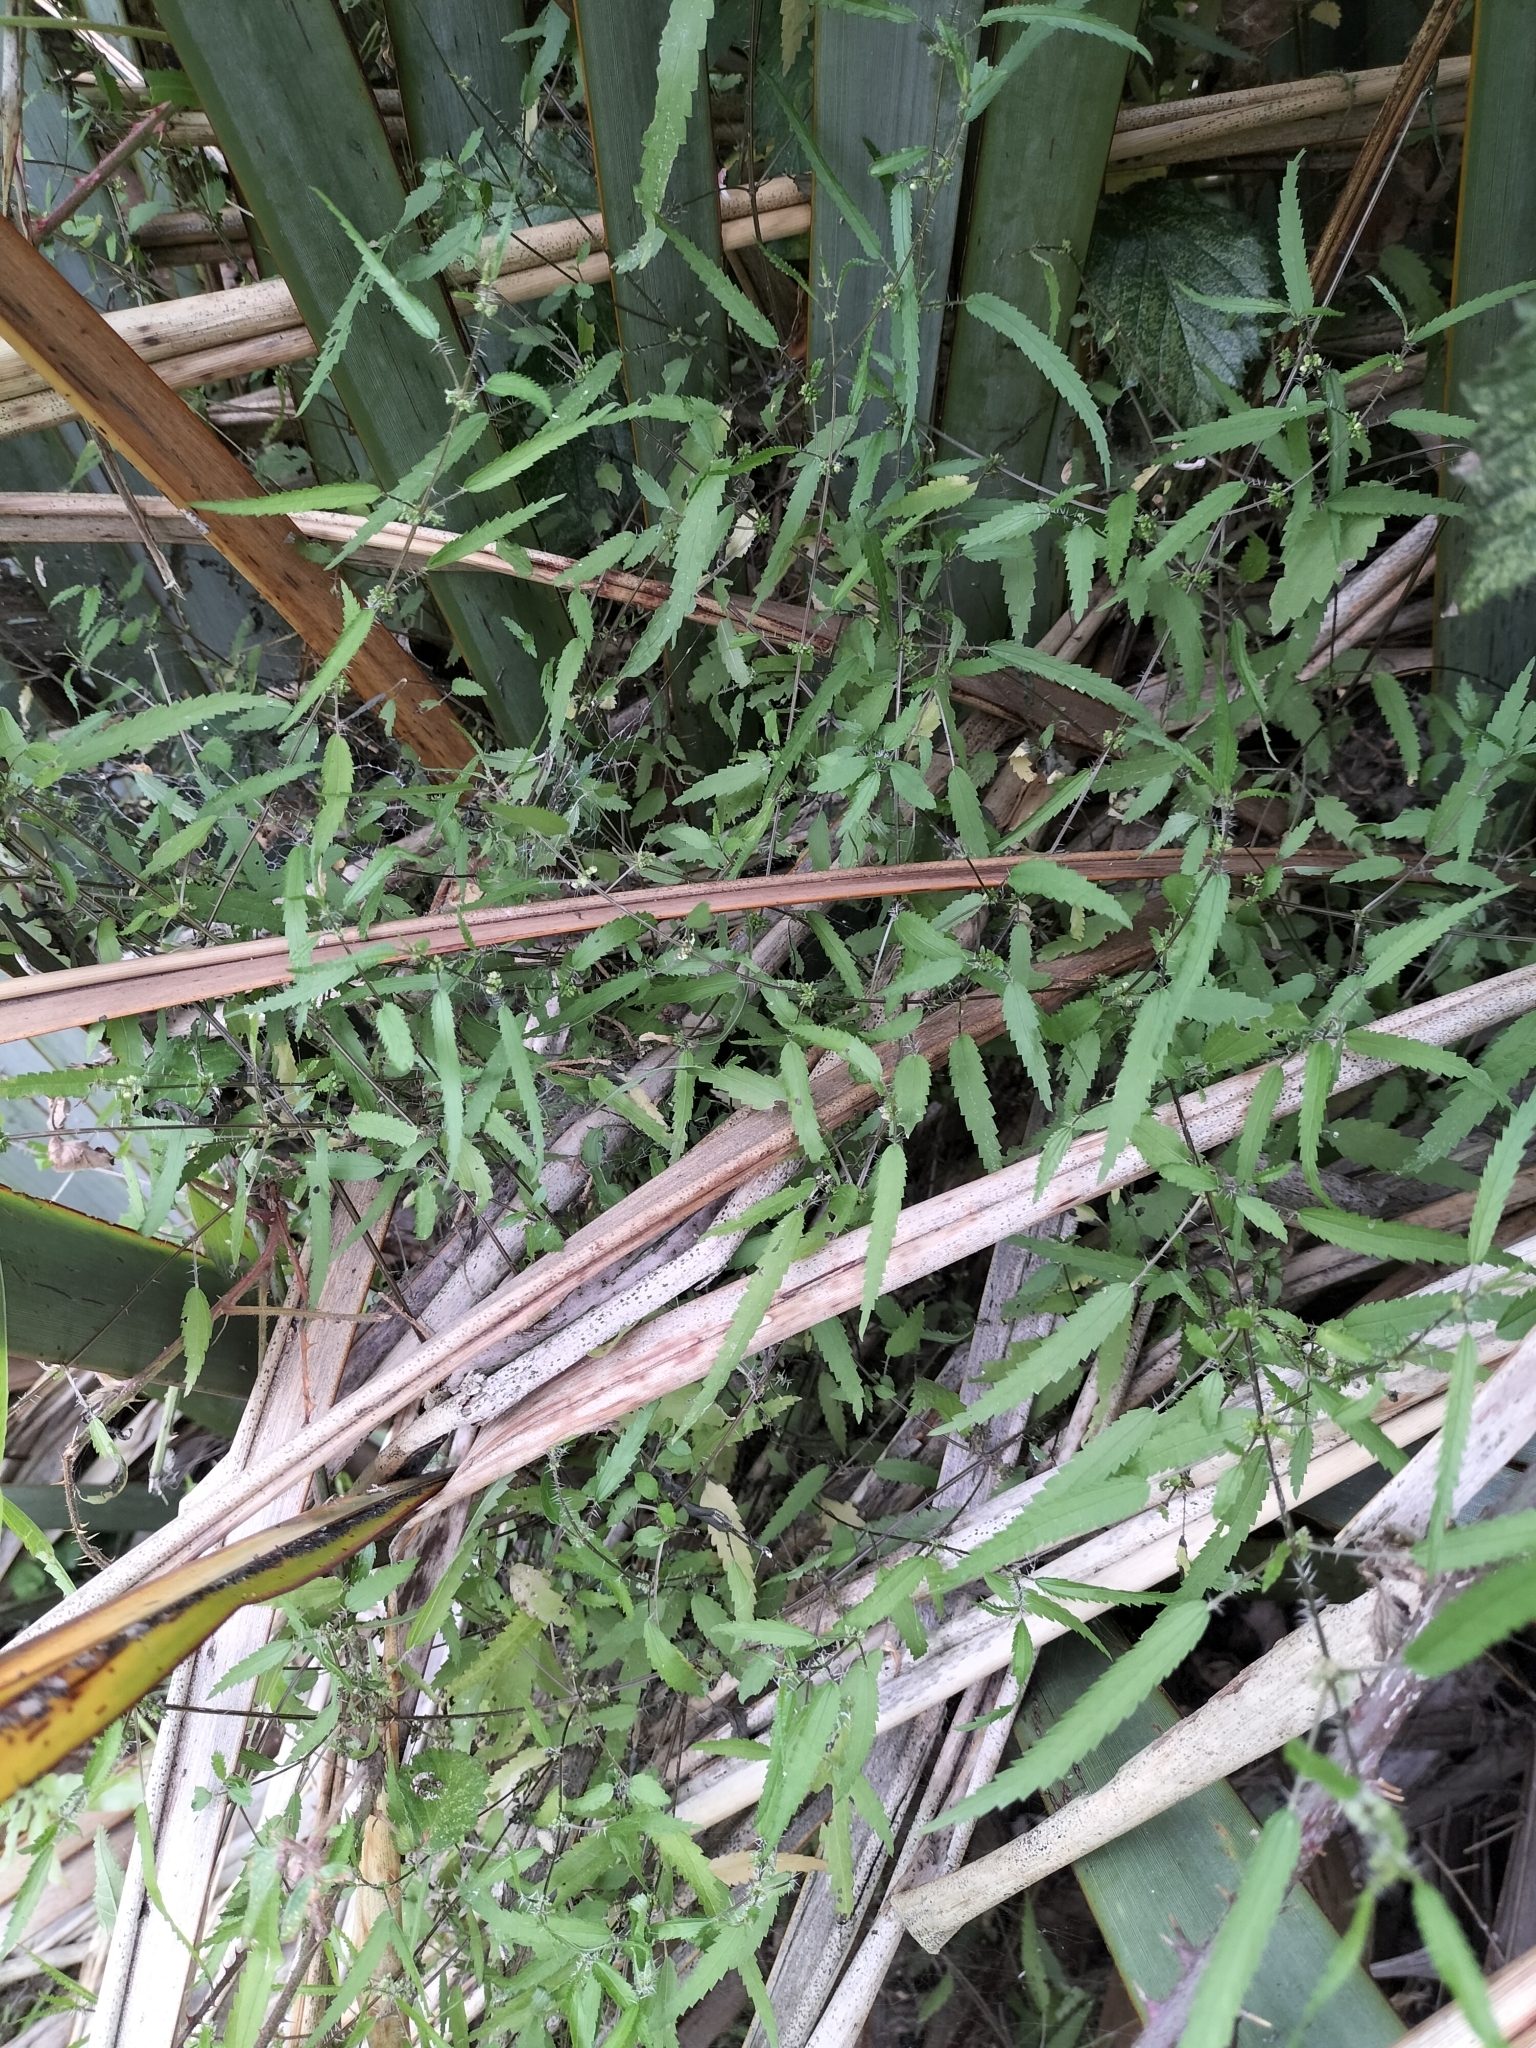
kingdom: Plantae
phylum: Tracheophyta
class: Magnoliopsida
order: Rosales
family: Urticaceae
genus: Urtica
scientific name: Urtica perconfusa
